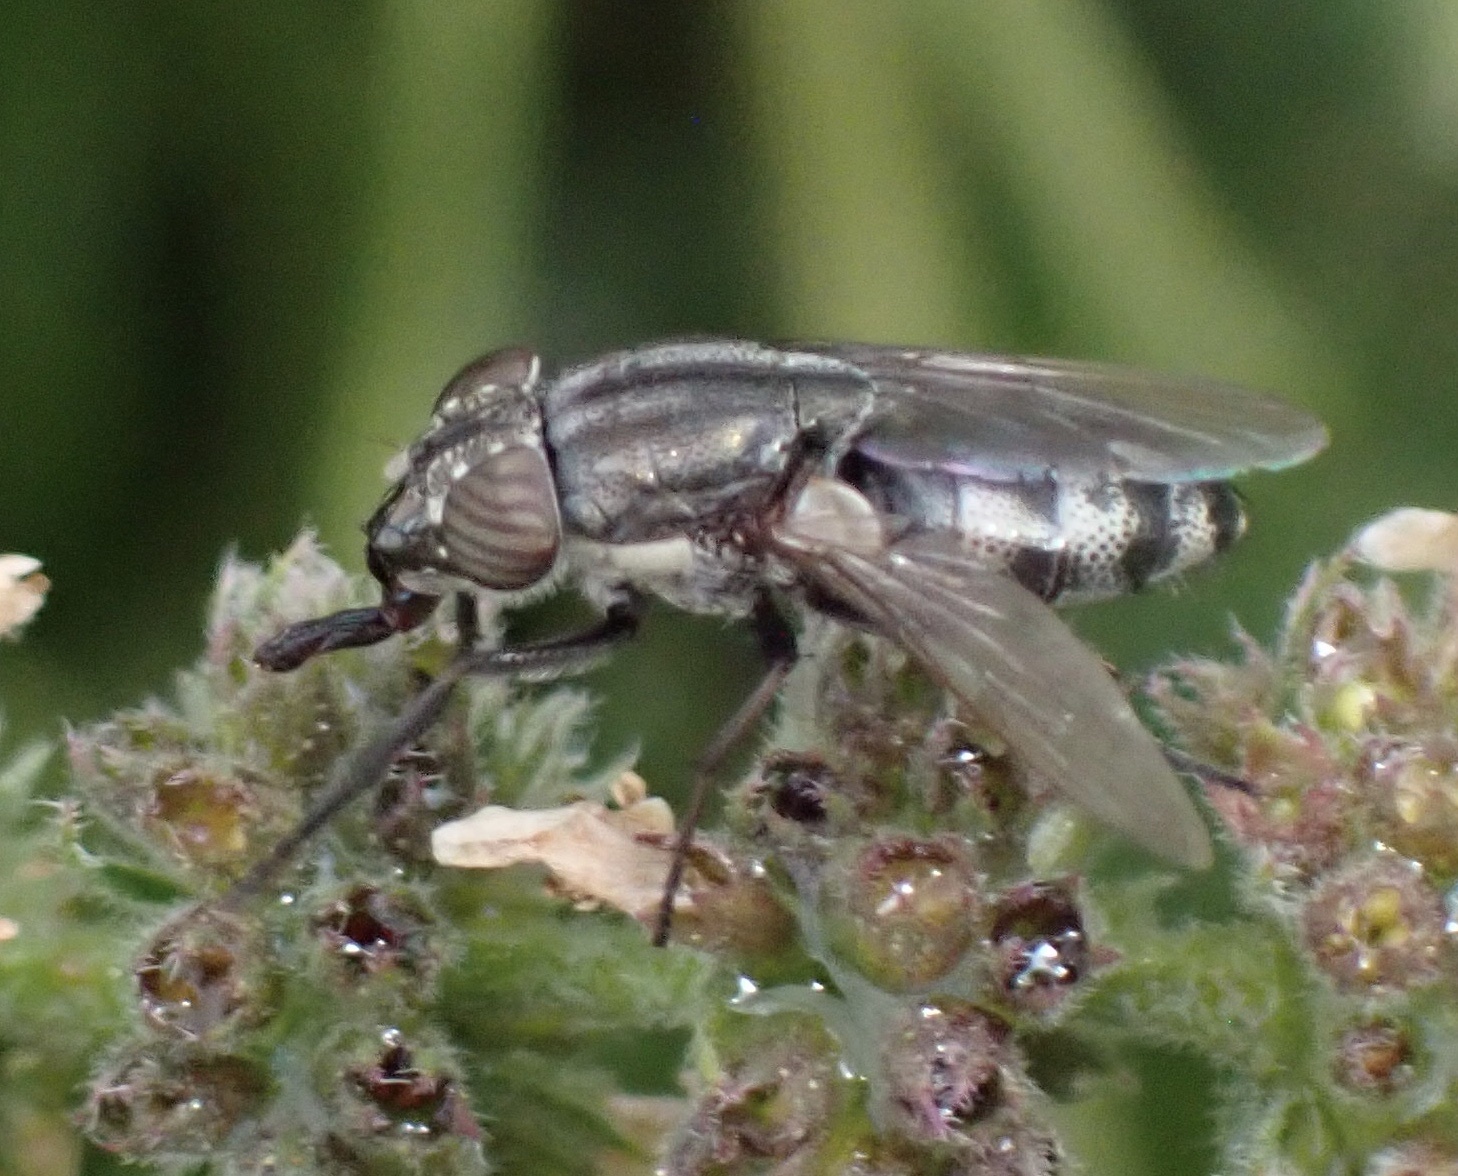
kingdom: Animalia
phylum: Arthropoda
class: Insecta
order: Diptera
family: Calliphoridae
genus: Stomorhina
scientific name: Stomorhina lunata
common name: Locust blowfly
